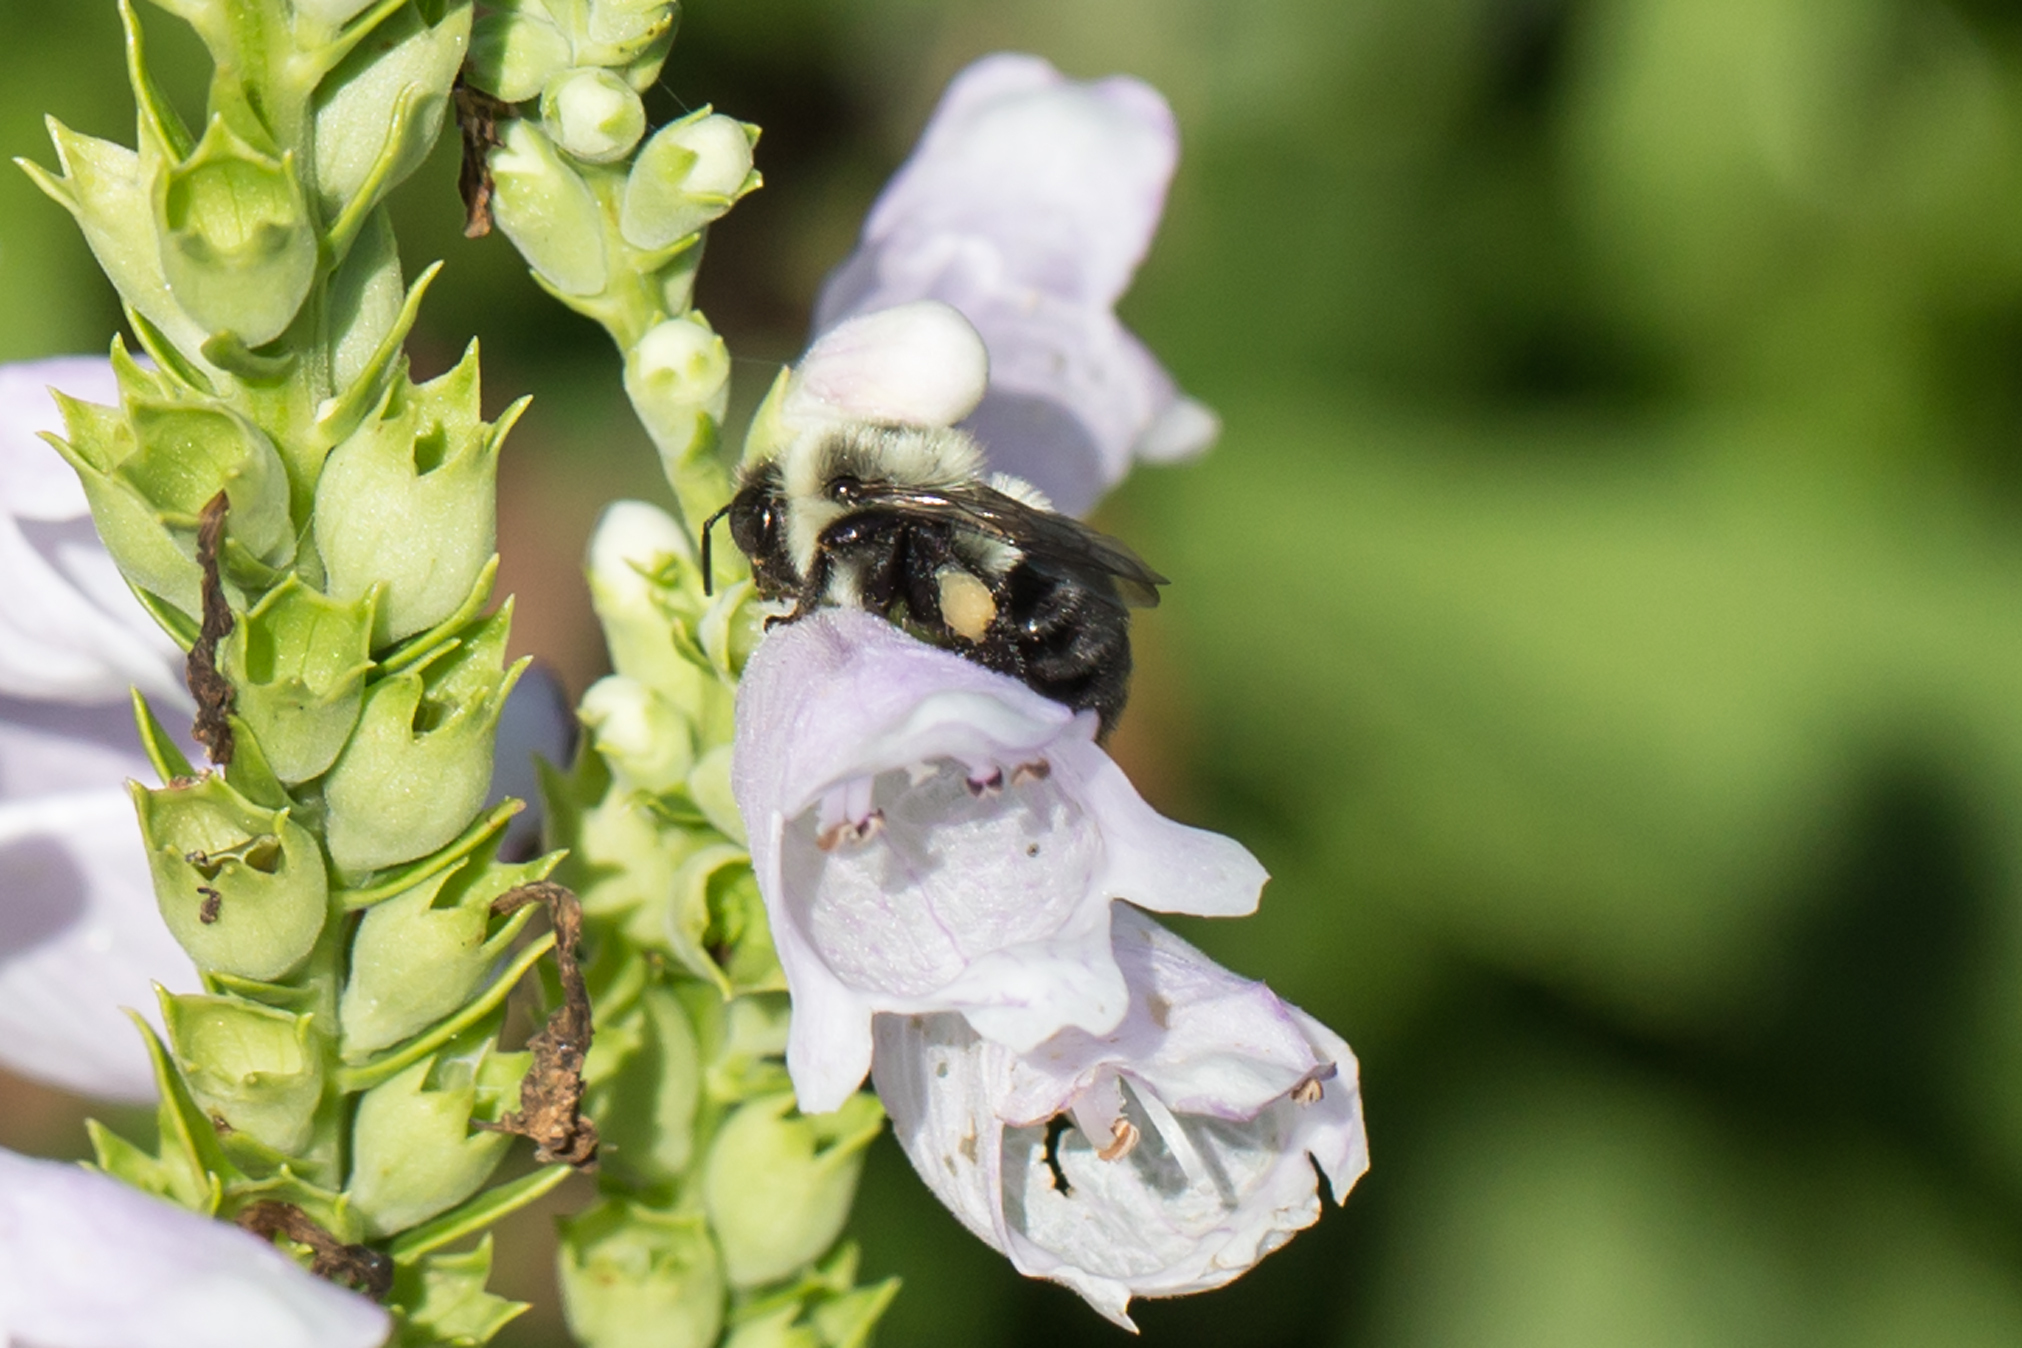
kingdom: Animalia
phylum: Arthropoda
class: Insecta
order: Hymenoptera
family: Apidae
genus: Bombus
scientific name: Bombus impatiens
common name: Common eastern bumble bee
